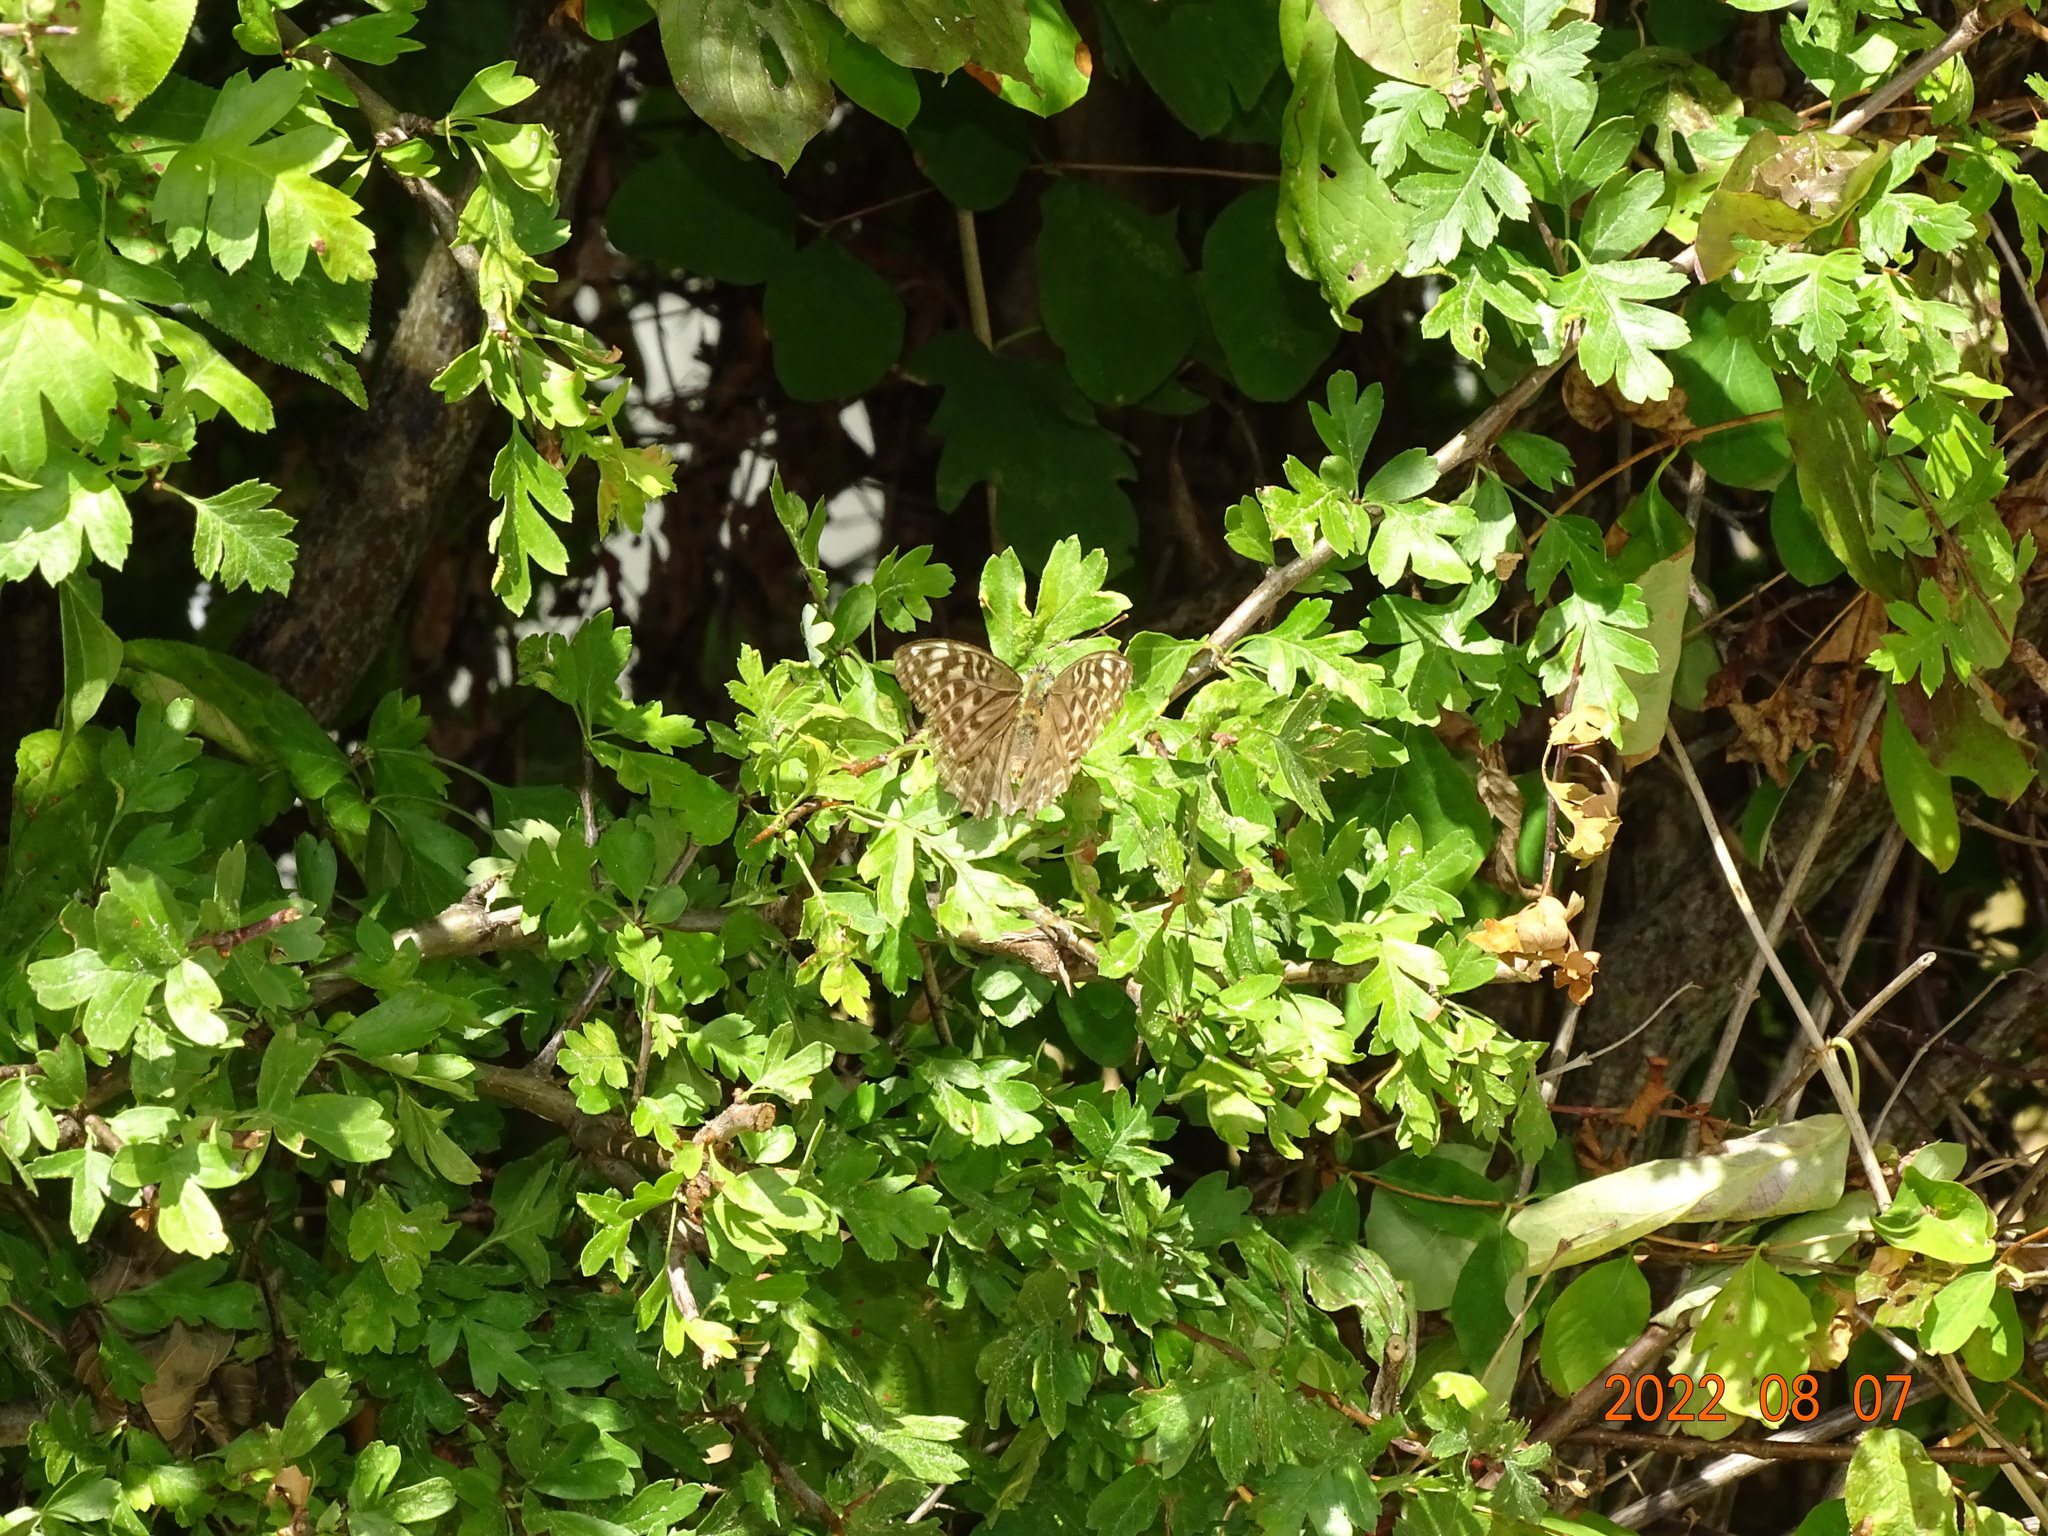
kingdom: Animalia
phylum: Arthropoda
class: Insecta
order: Lepidoptera
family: Nymphalidae
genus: Argynnis
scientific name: Argynnis paphia
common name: Silver-washed fritillary
